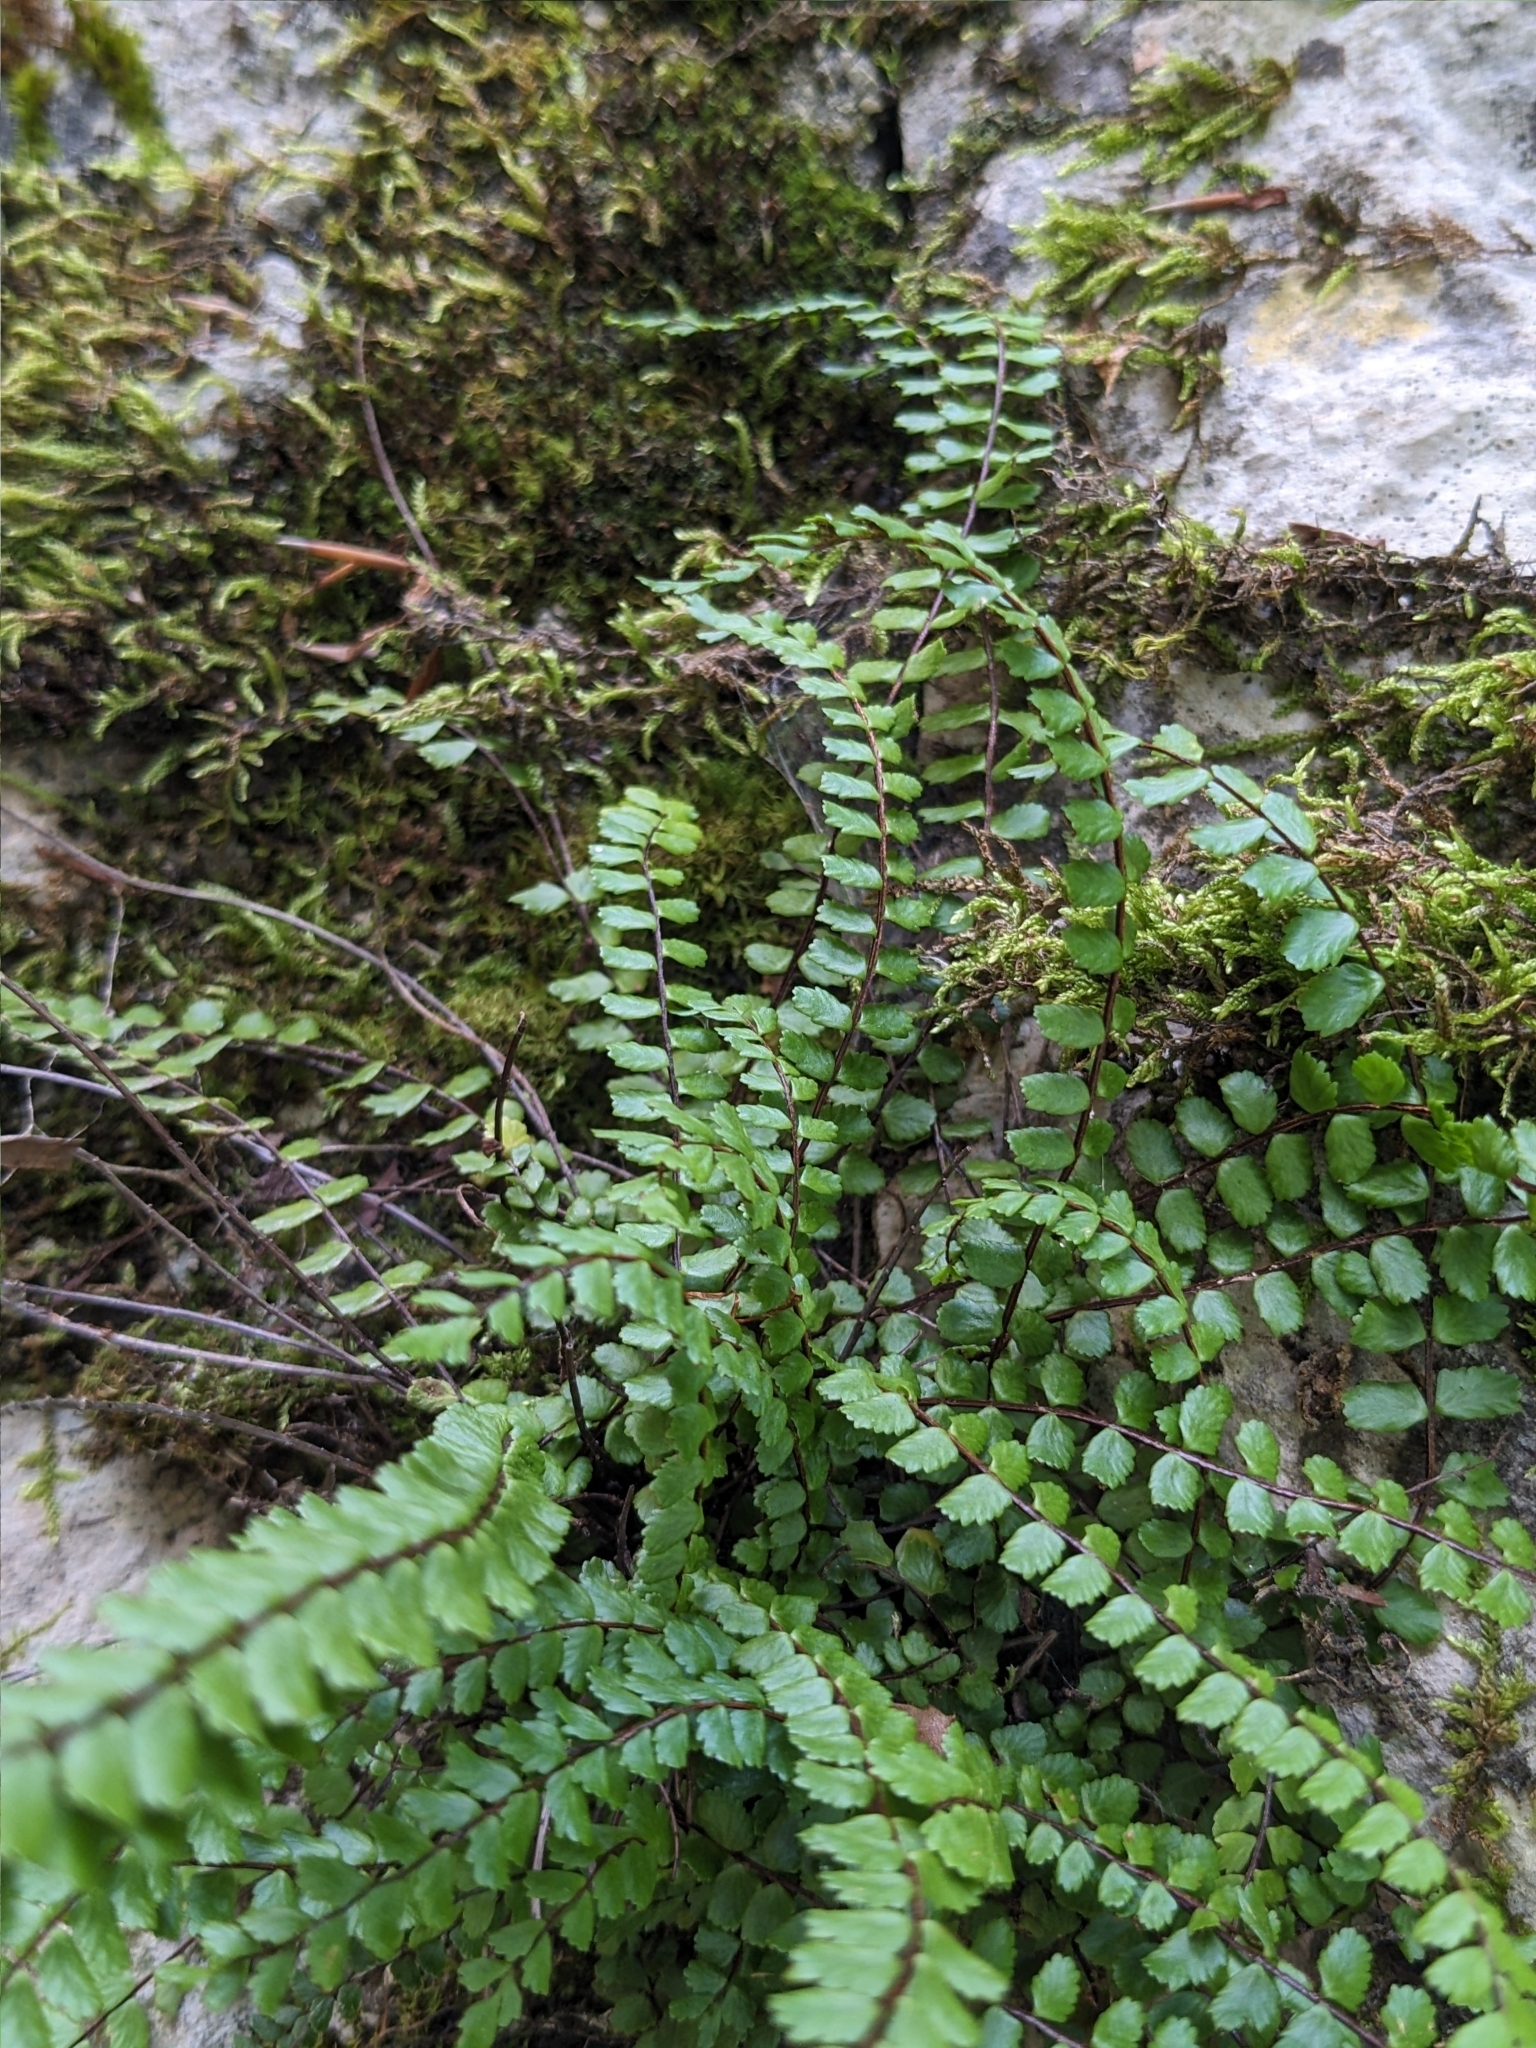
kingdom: Plantae
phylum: Tracheophyta
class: Polypodiopsida
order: Polypodiales
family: Aspleniaceae
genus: Asplenium
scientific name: Asplenium trichomanes
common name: Maidenhair spleenwort
